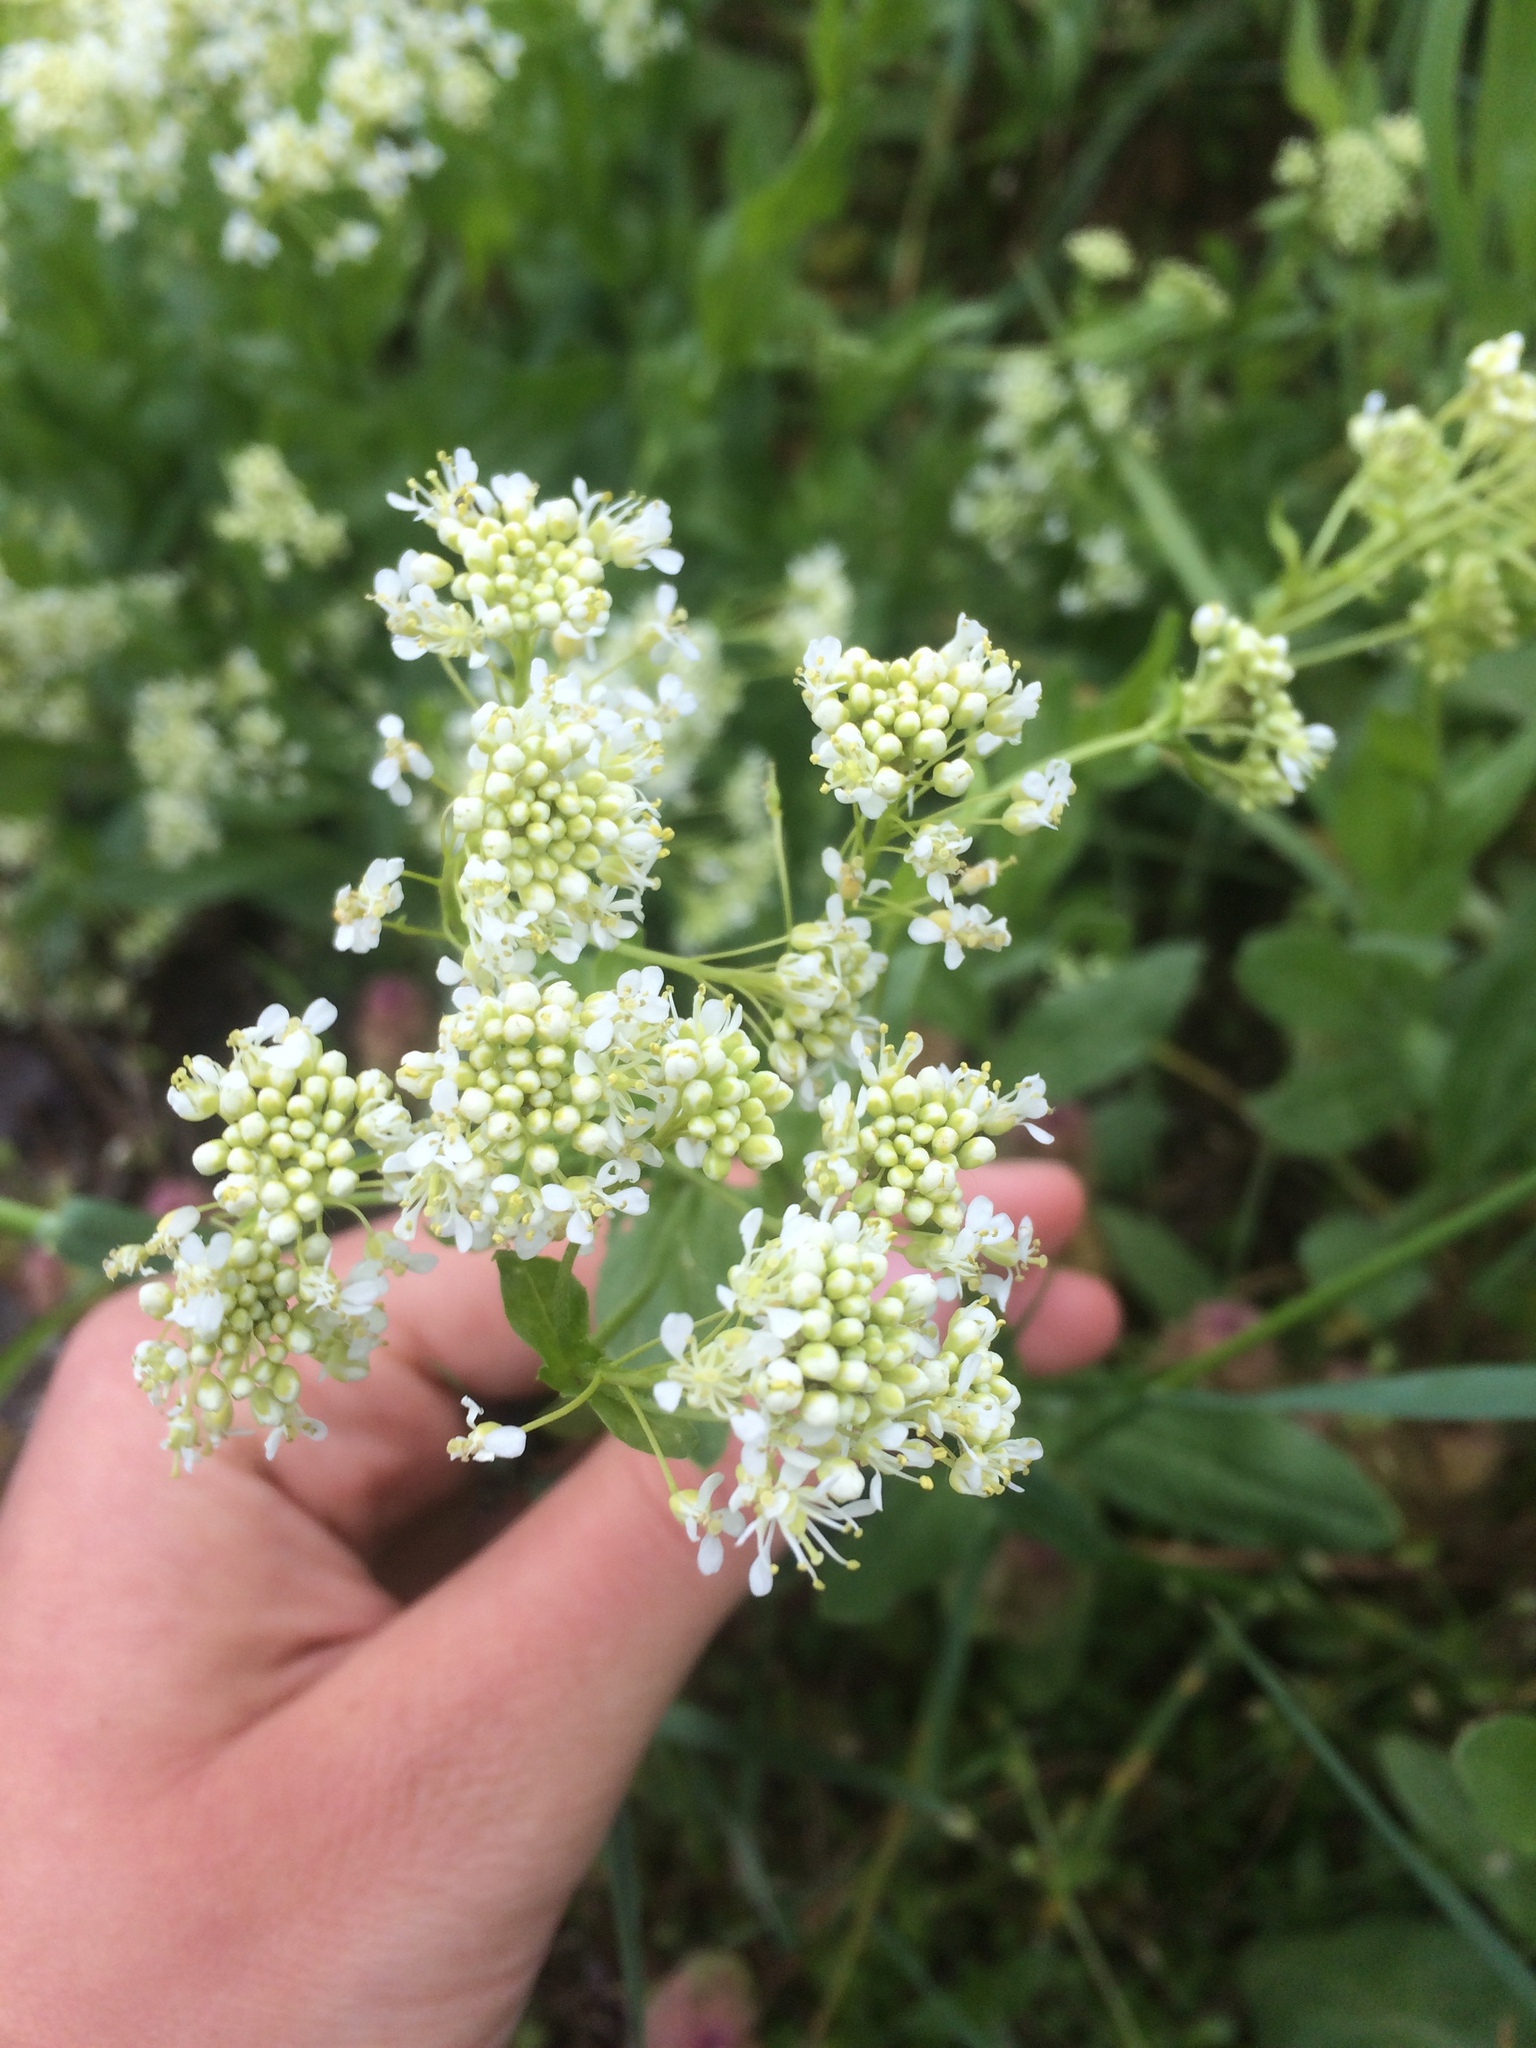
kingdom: Plantae
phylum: Tracheophyta
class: Magnoliopsida
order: Brassicales
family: Brassicaceae
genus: Lepidium
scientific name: Lepidium draba
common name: Hoary cress
